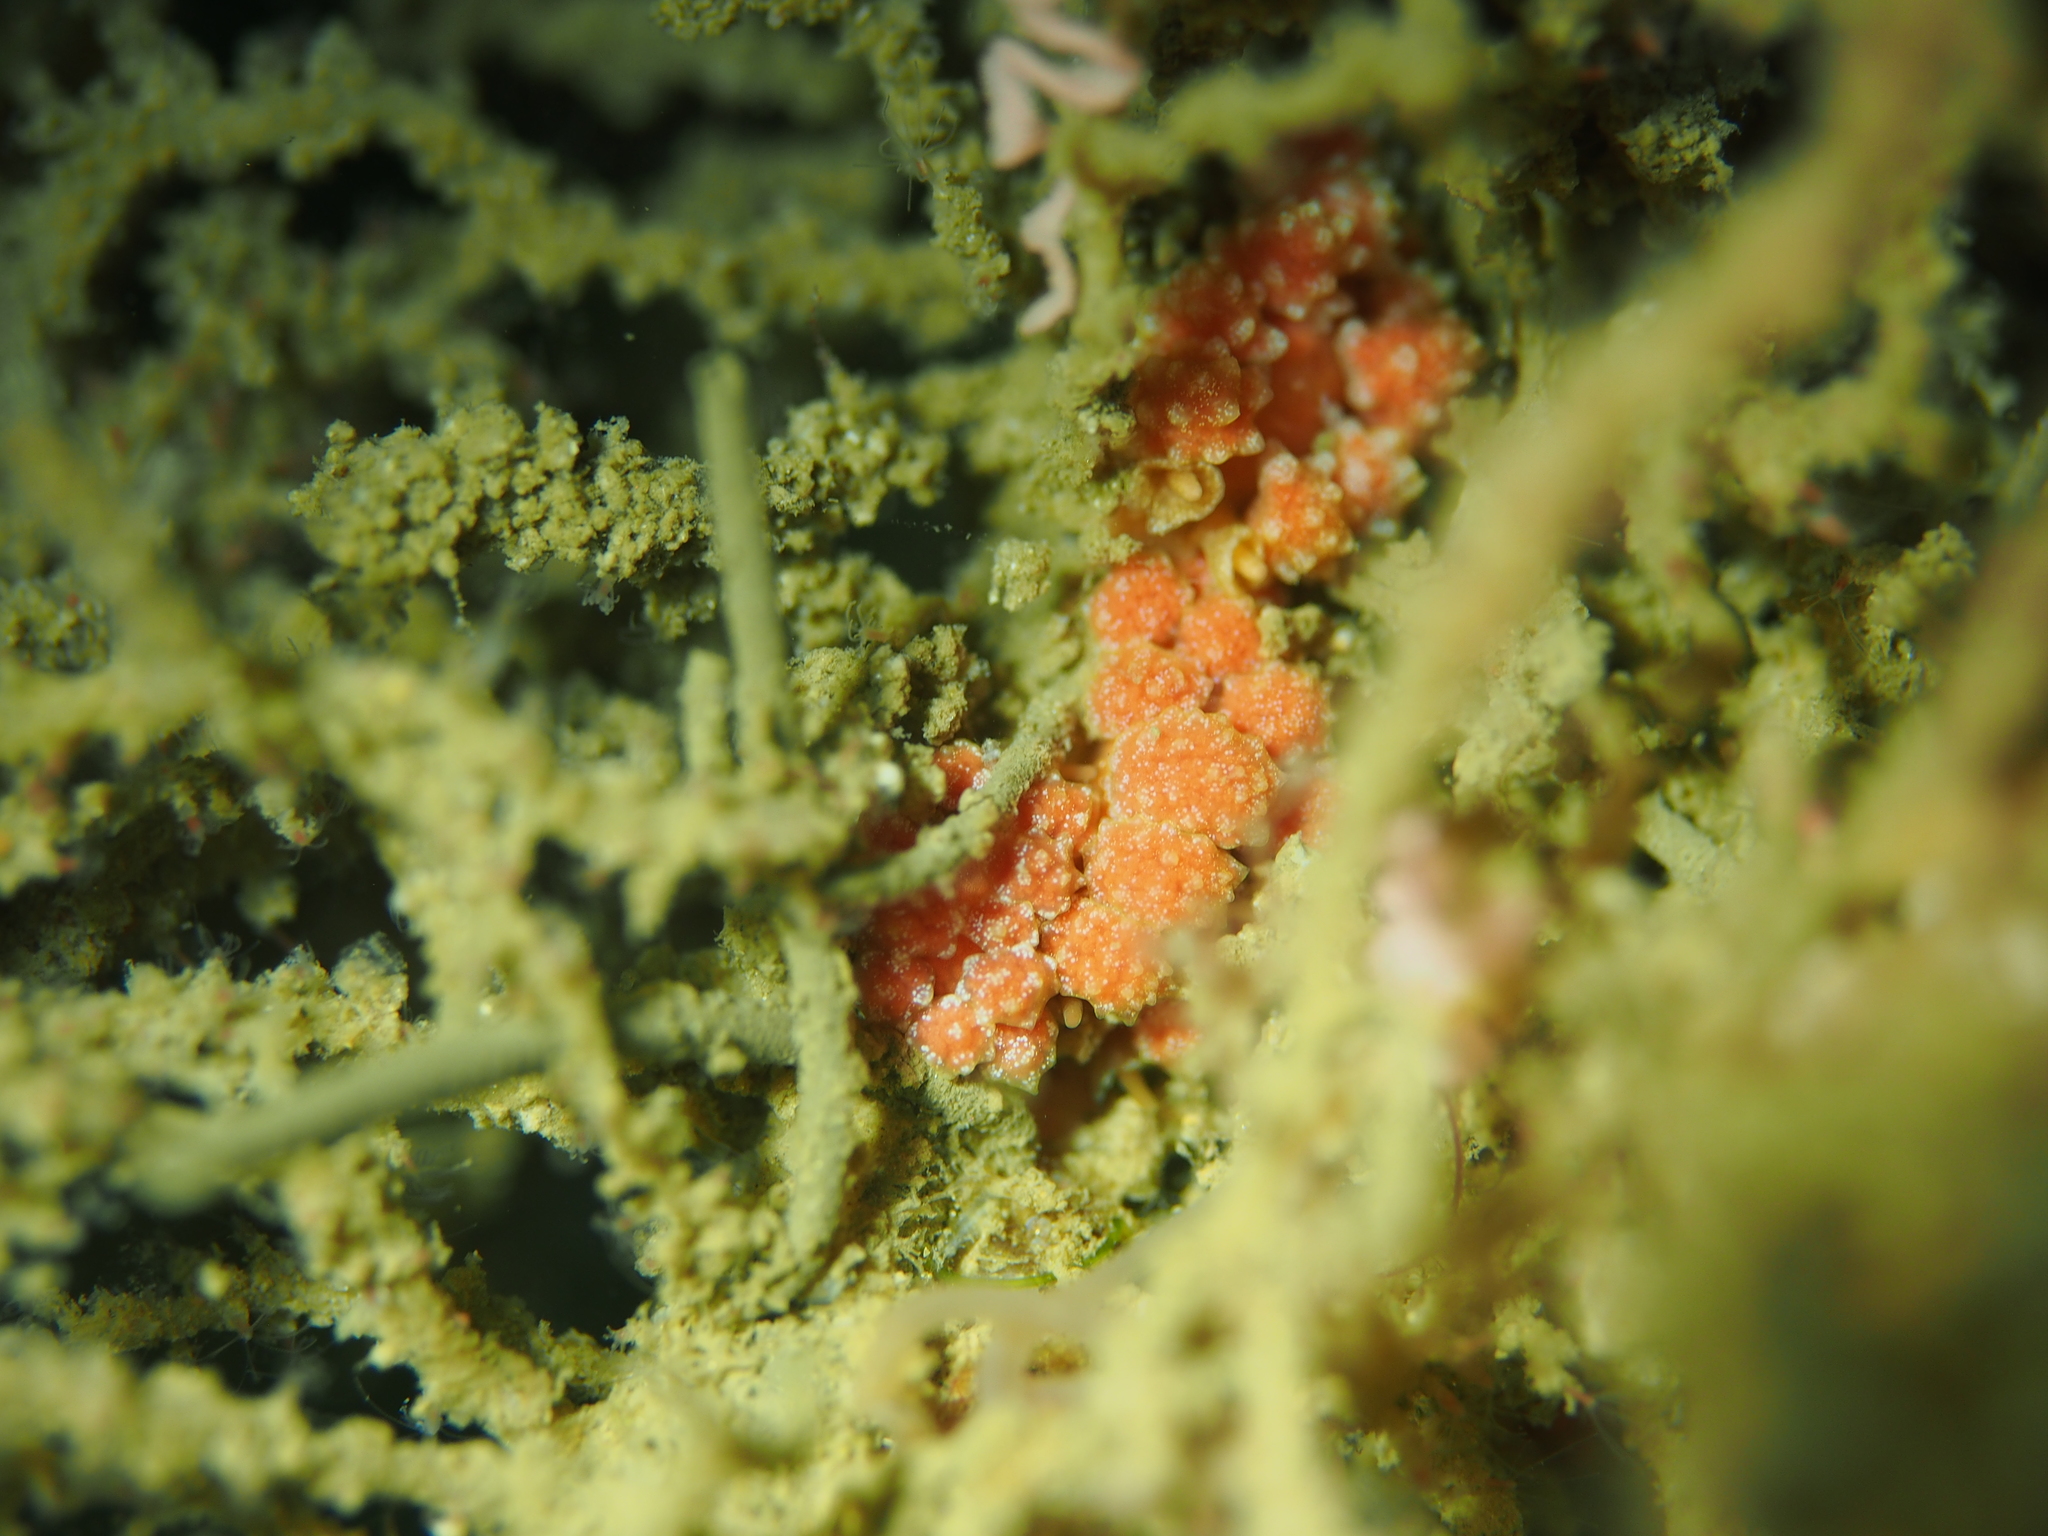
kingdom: Animalia
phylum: Mollusca
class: Gastropoda
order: Nudibranchia
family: Dotidae
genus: Doto
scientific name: Doto fragilis
